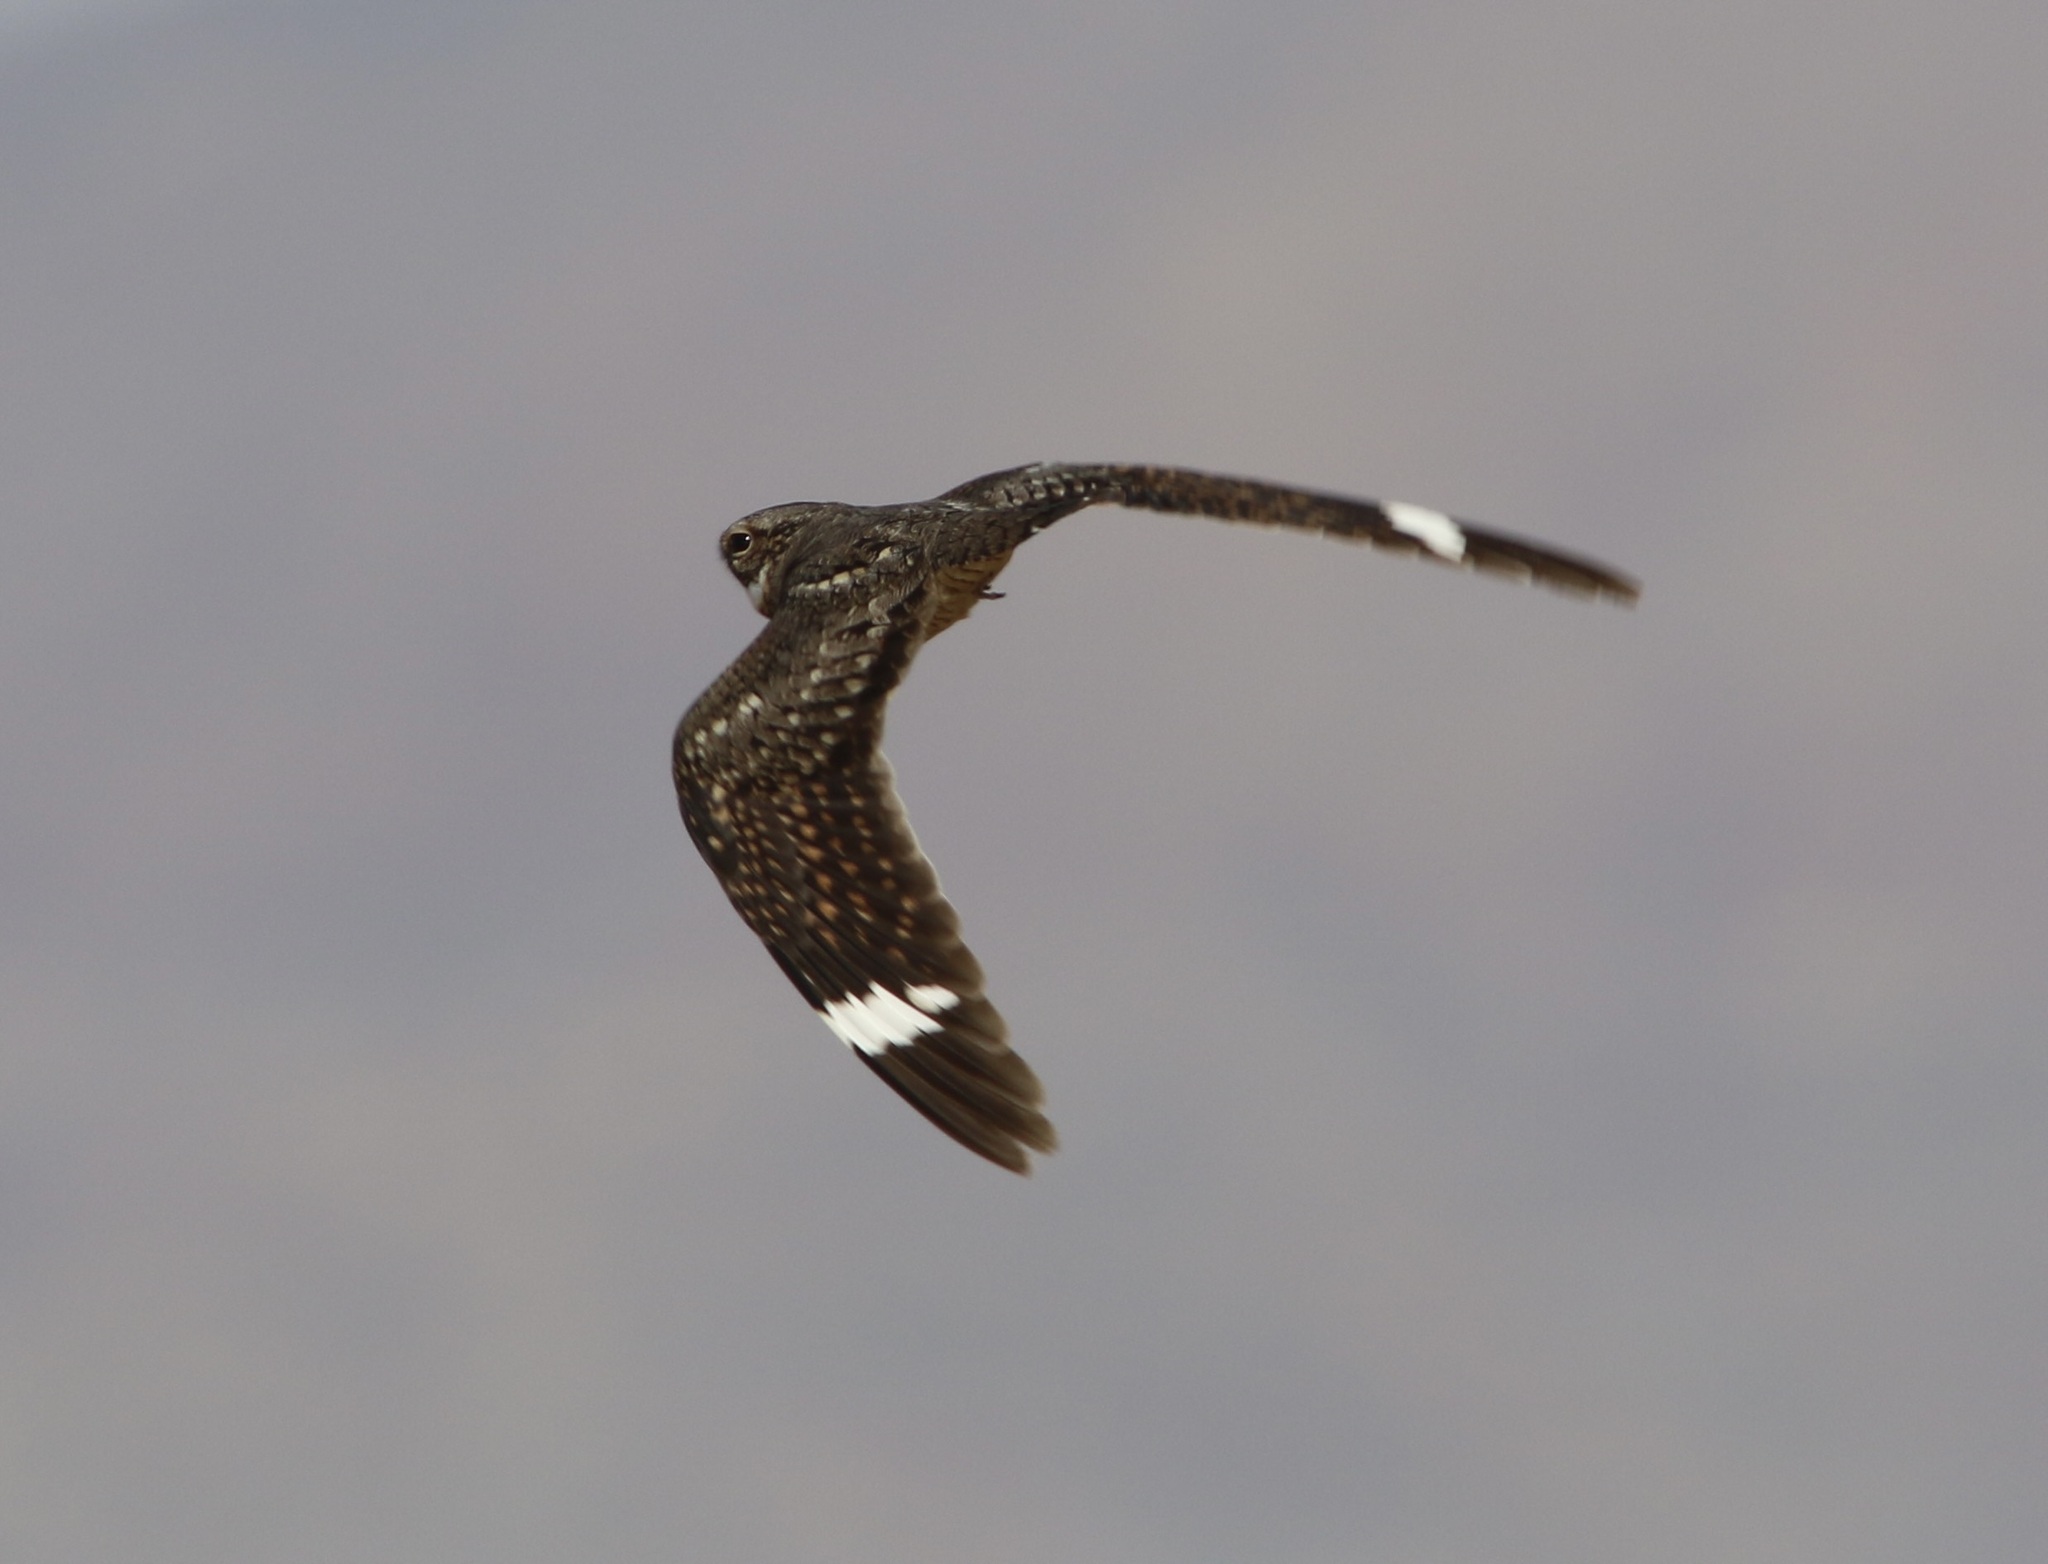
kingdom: Animalia
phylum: Chordata
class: Aves
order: Caprimulgiformes
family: Caprimulgidae
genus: Chordeiles
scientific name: Chordeiles acutipennis
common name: Lesser nighthawk
